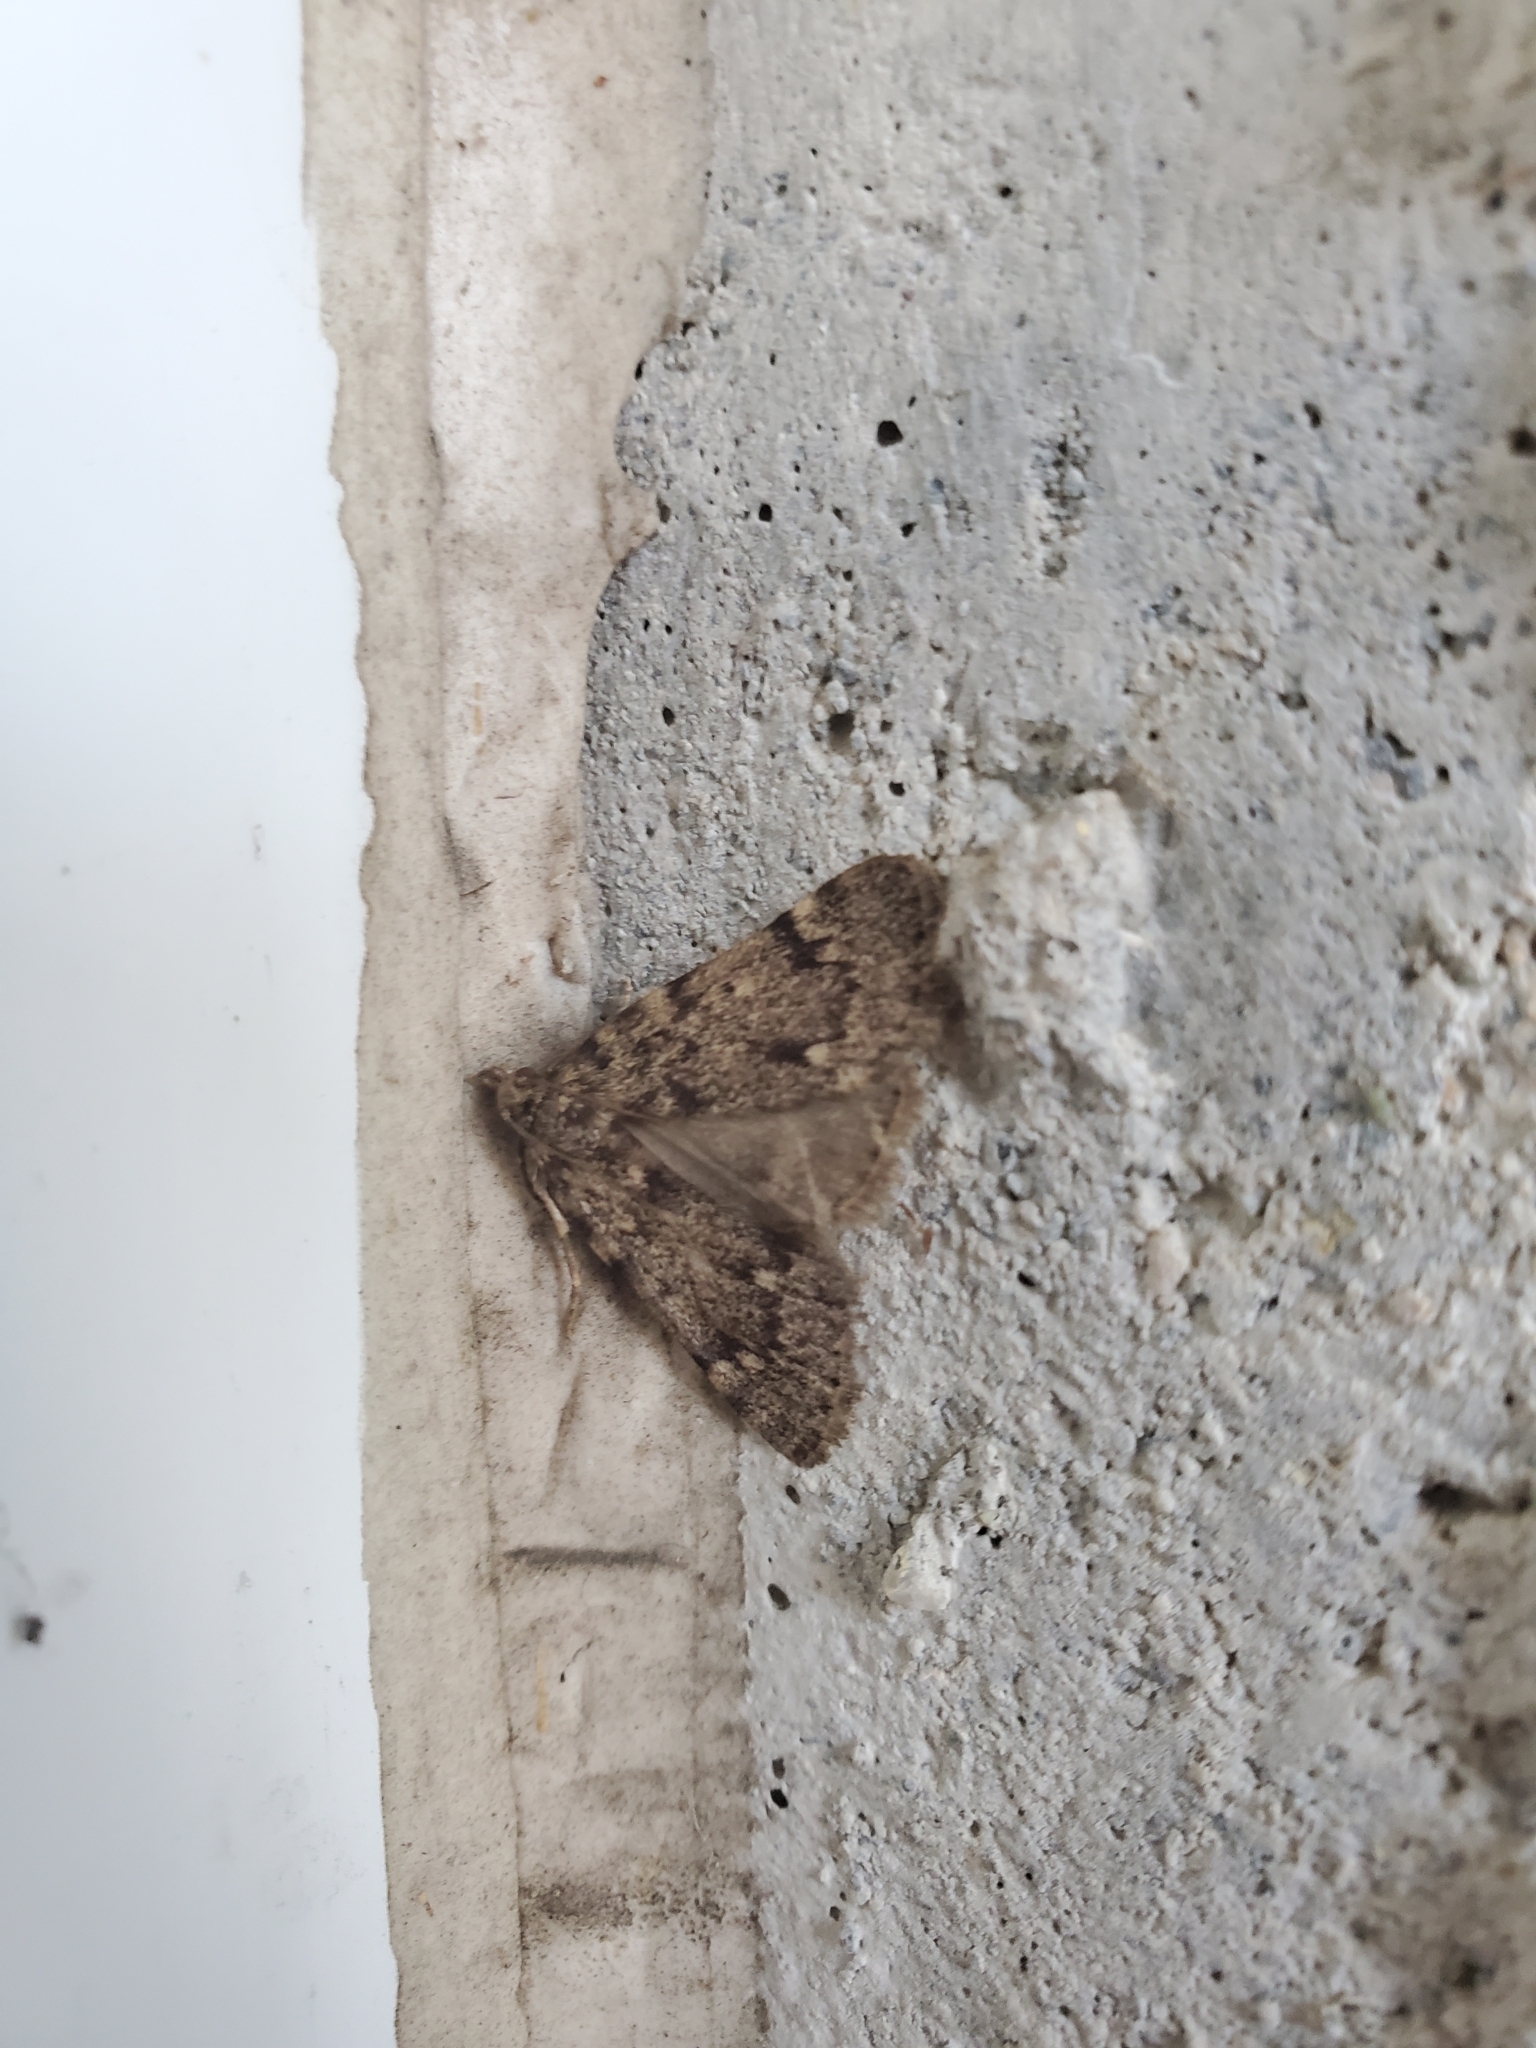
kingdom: Animalia
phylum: Arthropoda
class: Insecta
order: Lepidoptera
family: Pyralidae
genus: Aglossa
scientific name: Aglossa pinguinalis
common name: Large tabby
